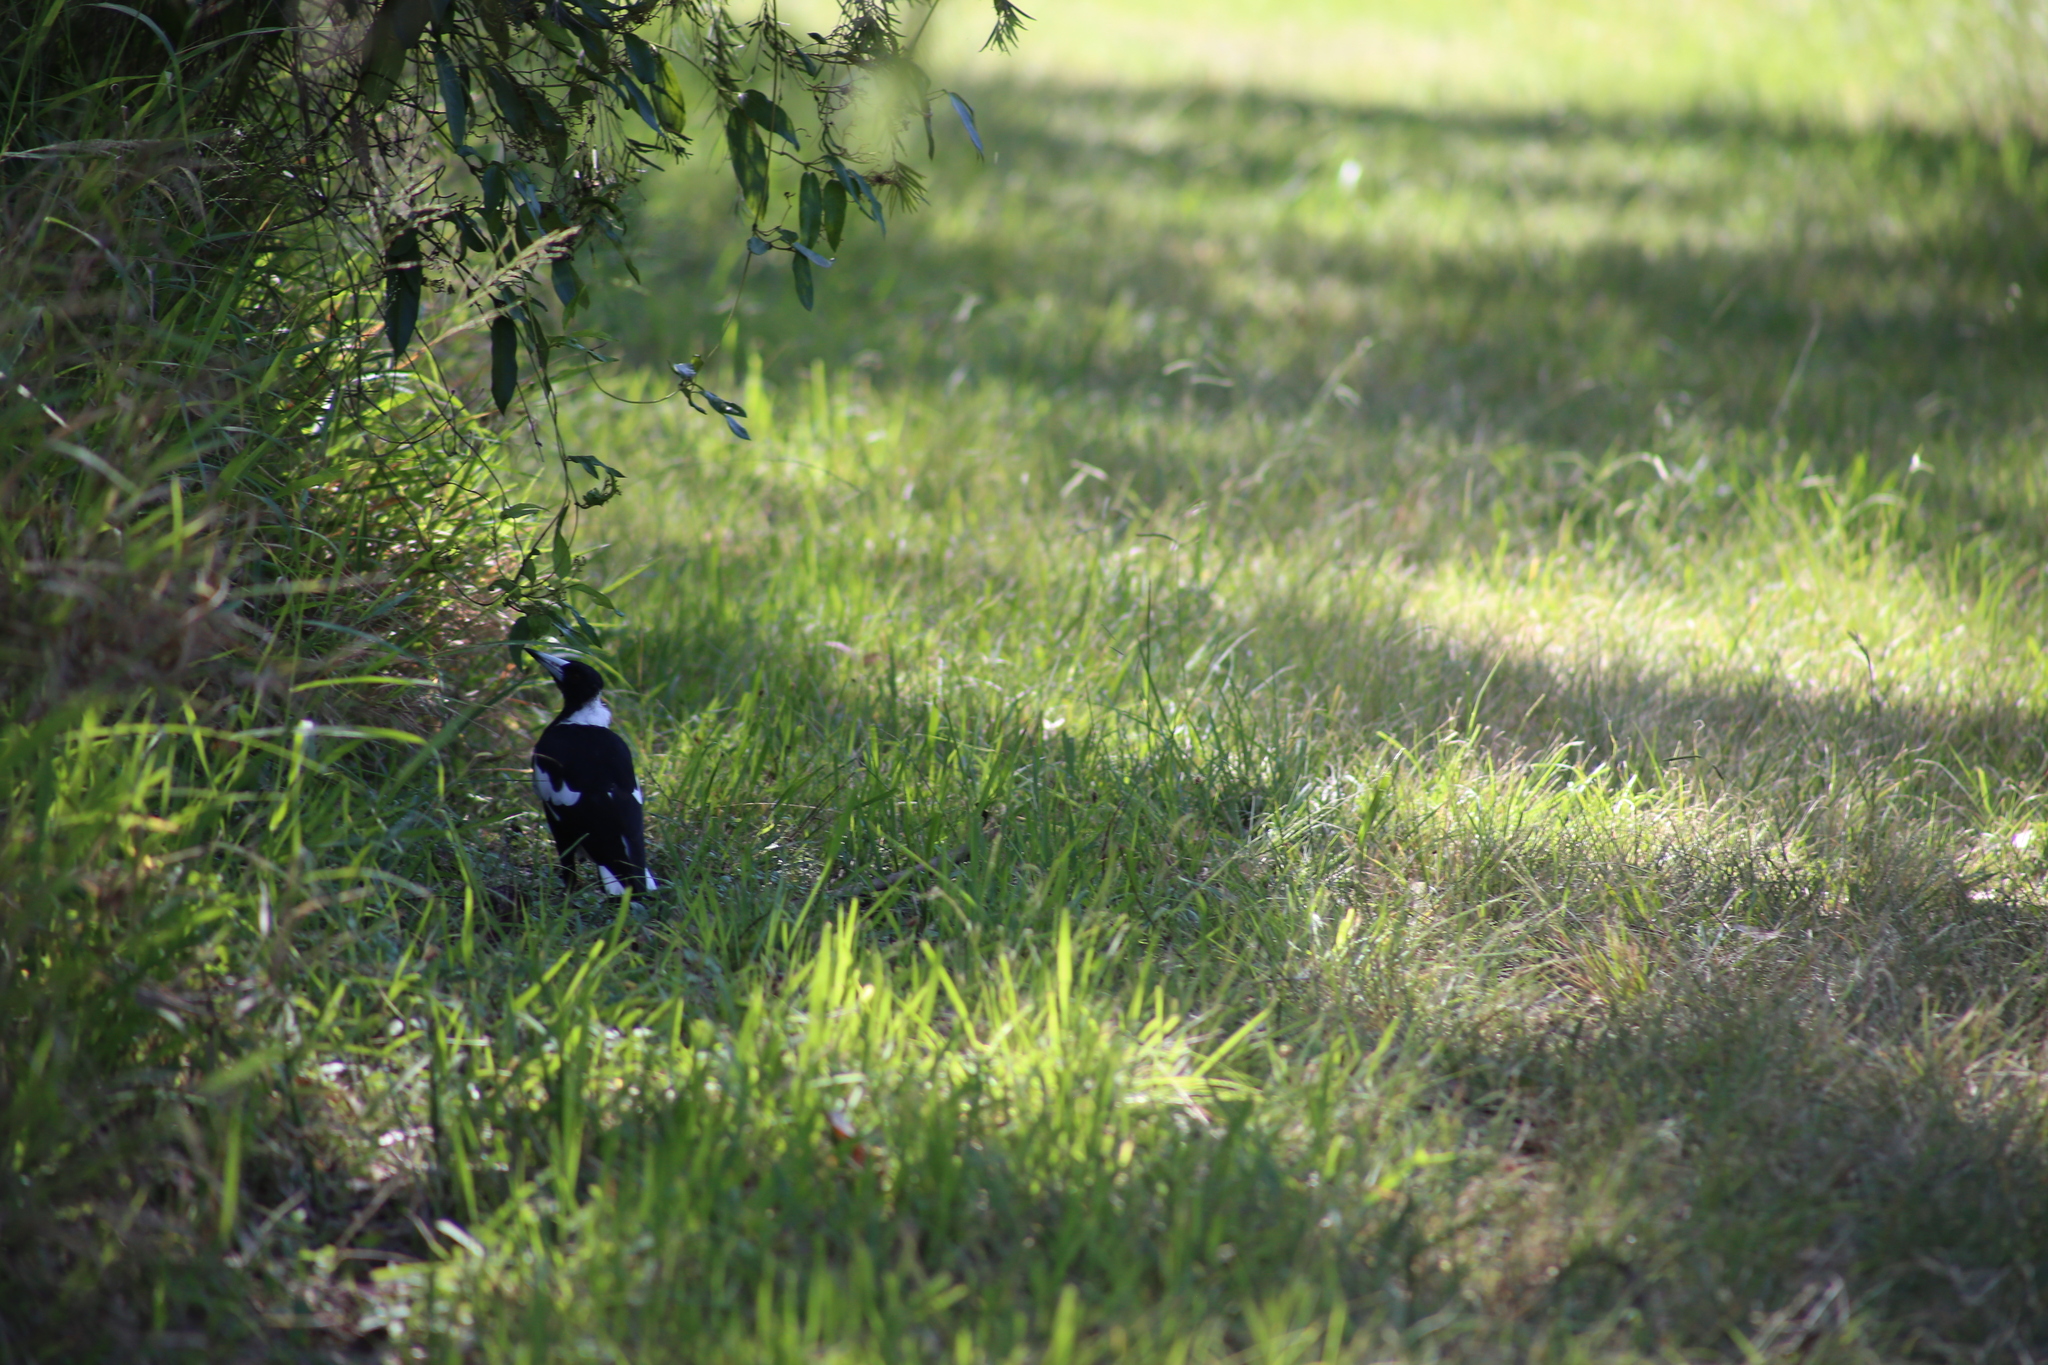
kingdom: Animalia
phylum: Chordata
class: Aves
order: Passeriformes
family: Cracticidae
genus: Gymnorhina
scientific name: Gymnorhina tibicen
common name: Australian magpie
